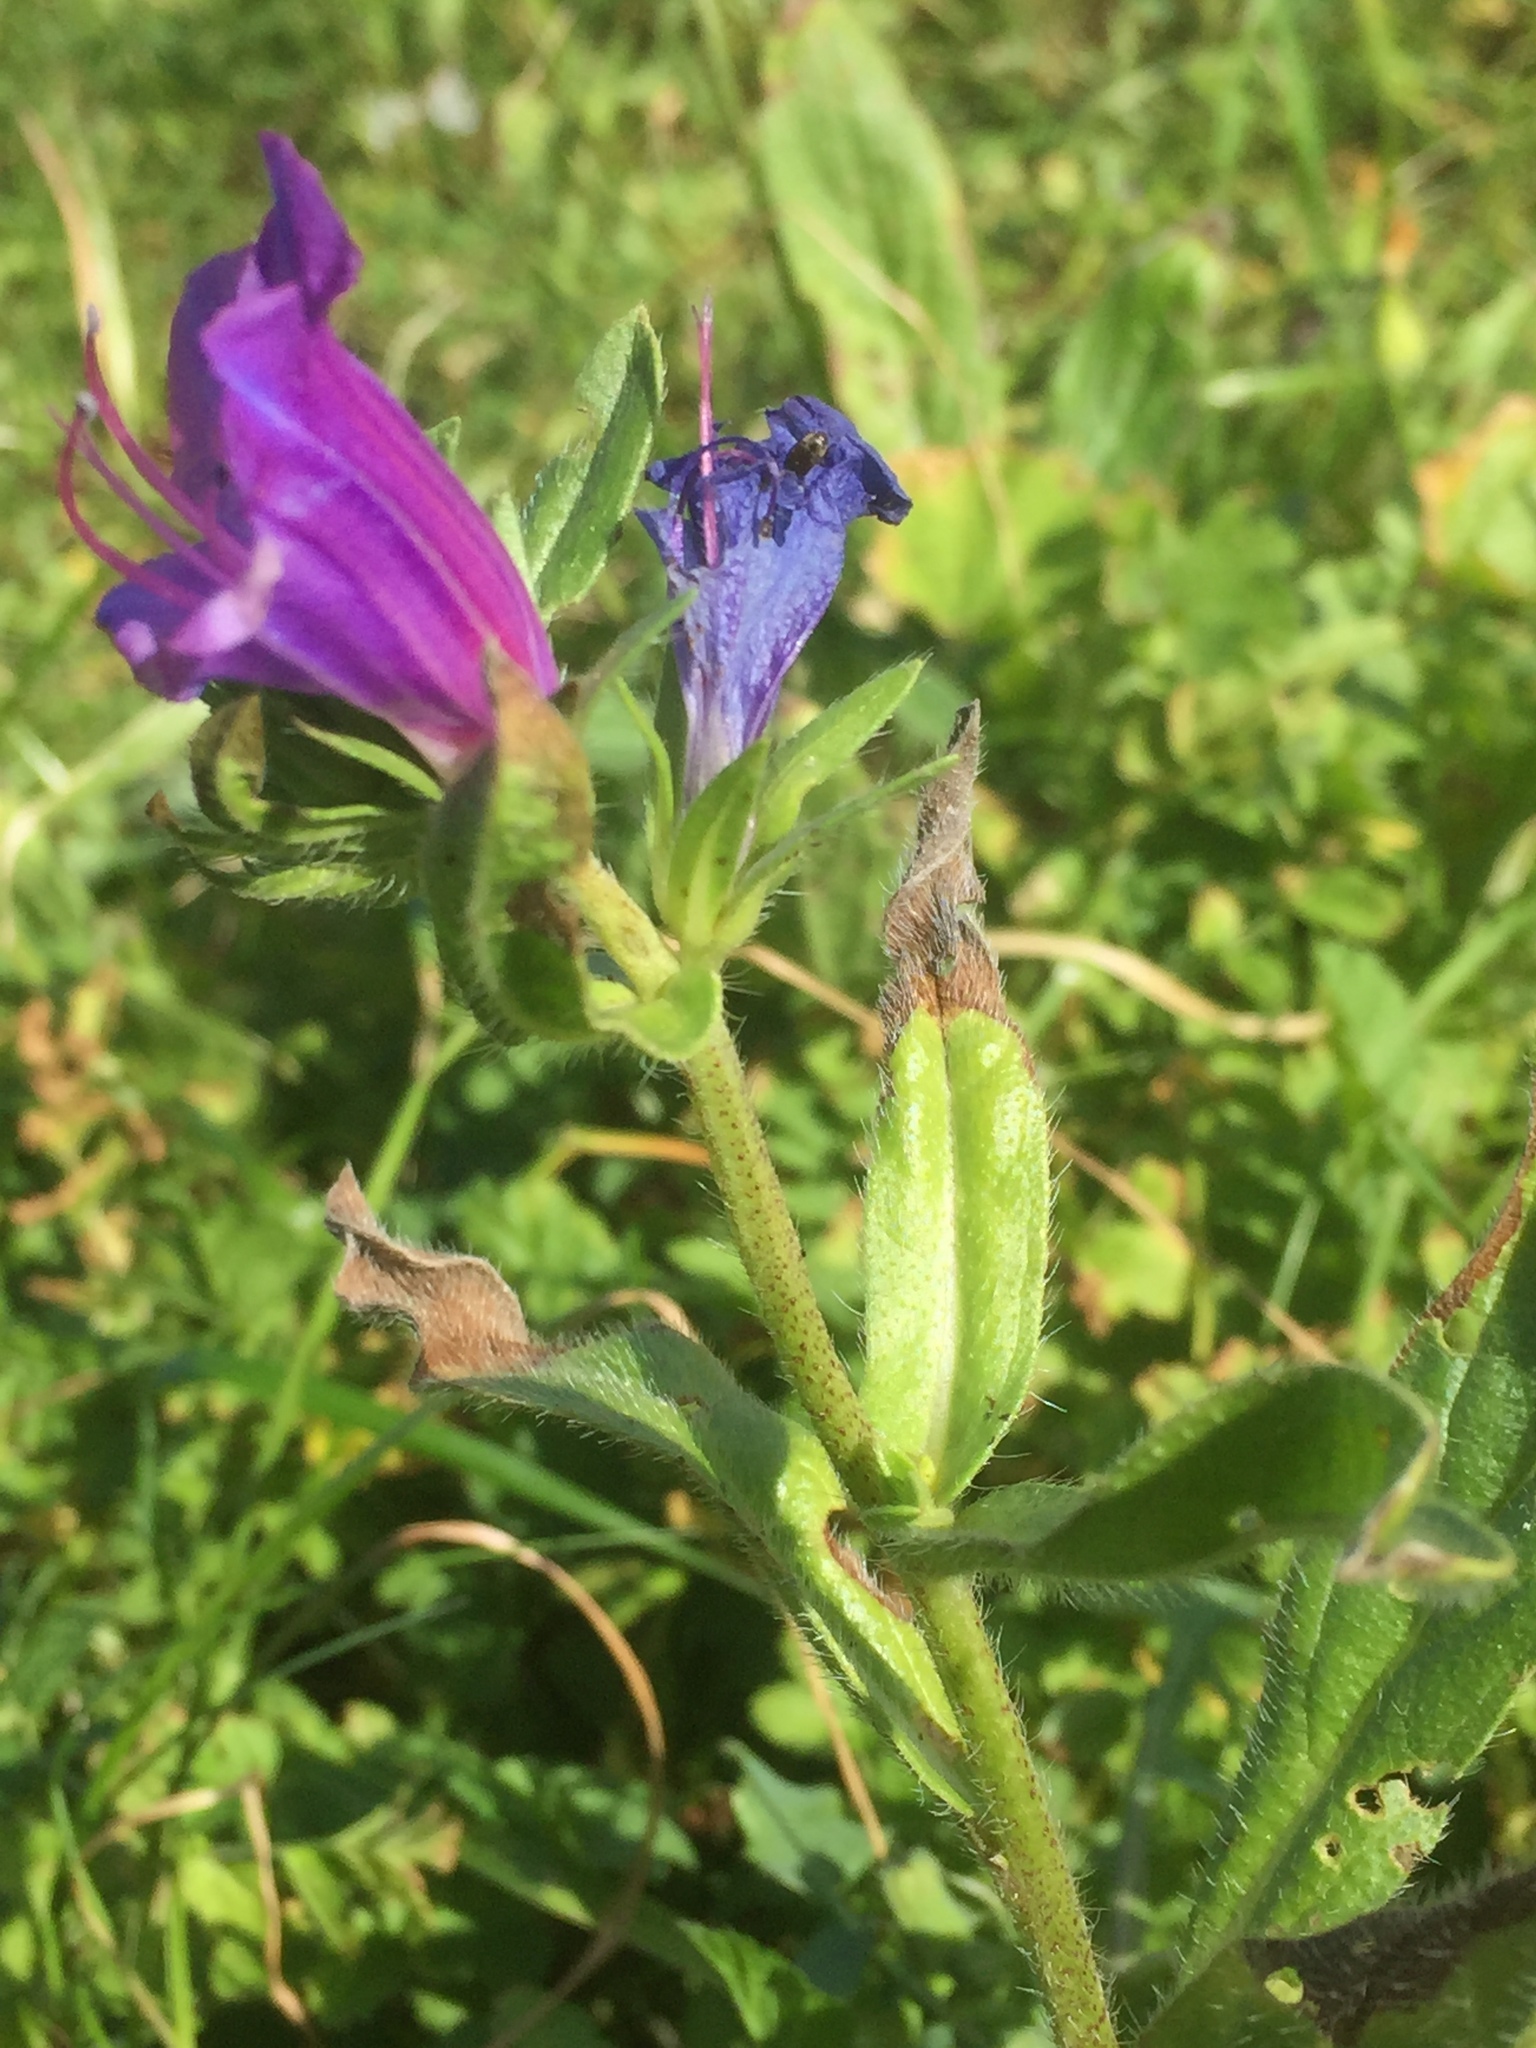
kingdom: Plantae
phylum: Tracheophyta
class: Magnoliopsida
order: Boraginales
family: Boraginaceae
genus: Echium
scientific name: Echium plantagineum
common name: Purple viper's-bugloss
